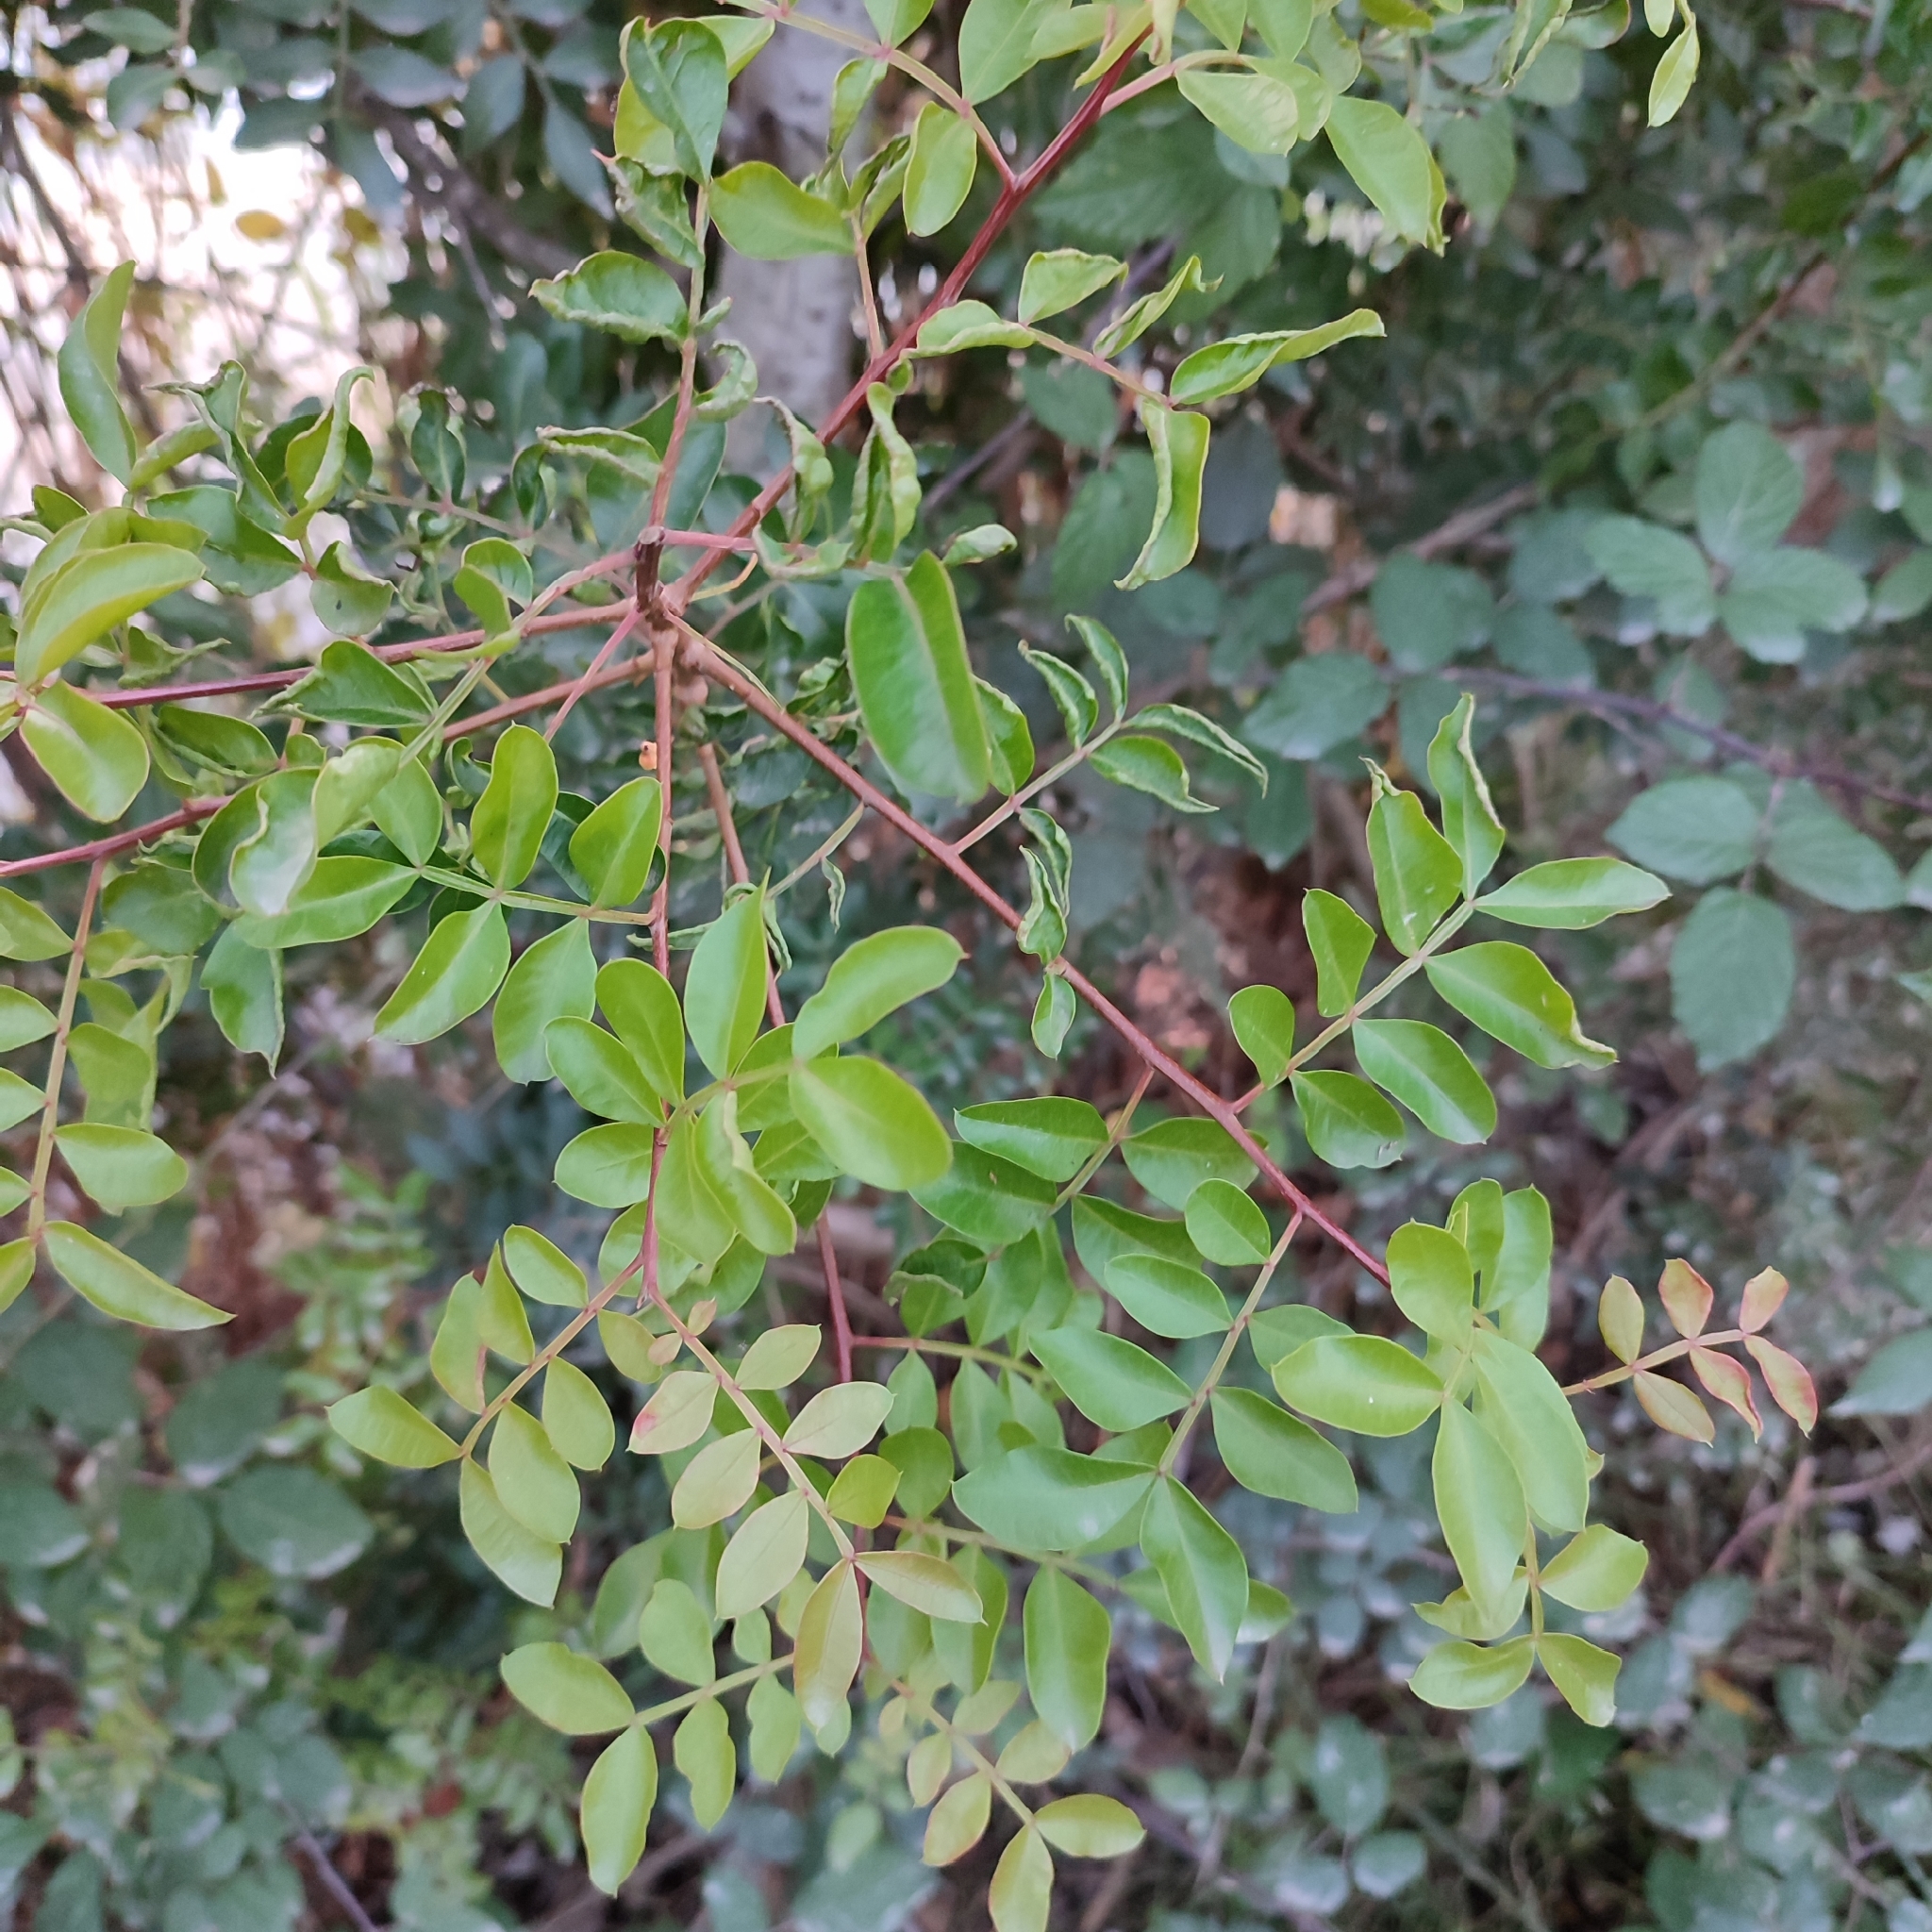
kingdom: Plantae
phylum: Tracheophyta
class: Magnoliopsida
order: Sapindales
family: Anacardiaceae
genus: Pistacia
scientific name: Pistacia lentiscus
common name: Lentisk
